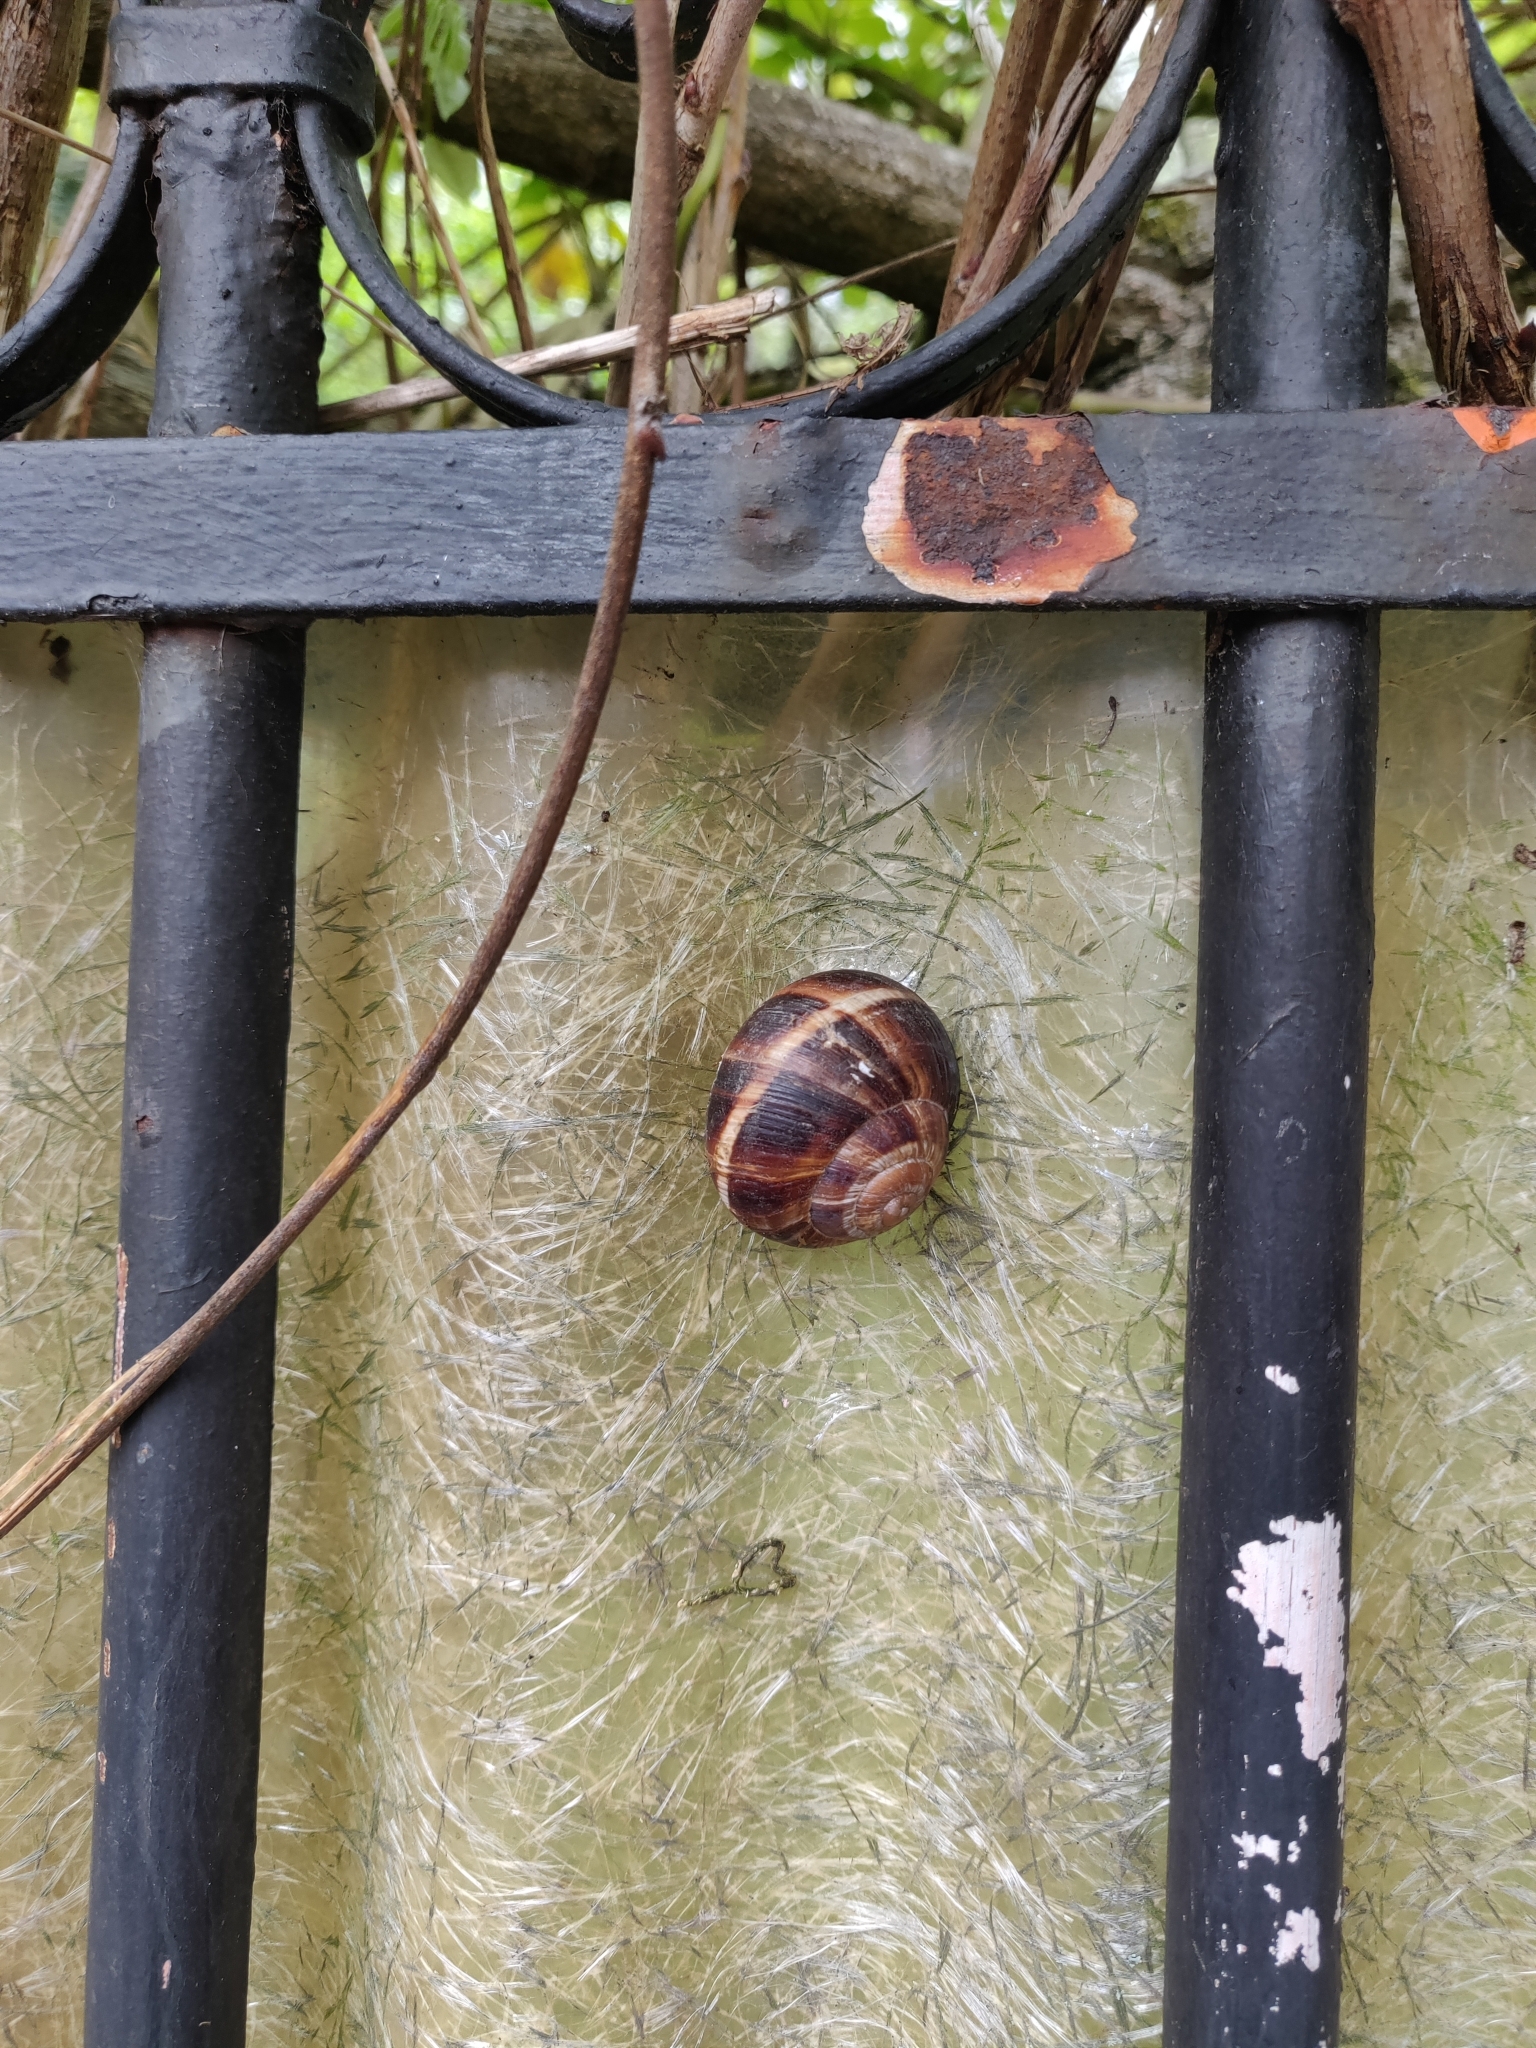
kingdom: Animalia
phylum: Mollusca
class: Gastropoda
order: Stylommatophora
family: Helicidae
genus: Helix
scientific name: Helix lucorum
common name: Turkish snail
